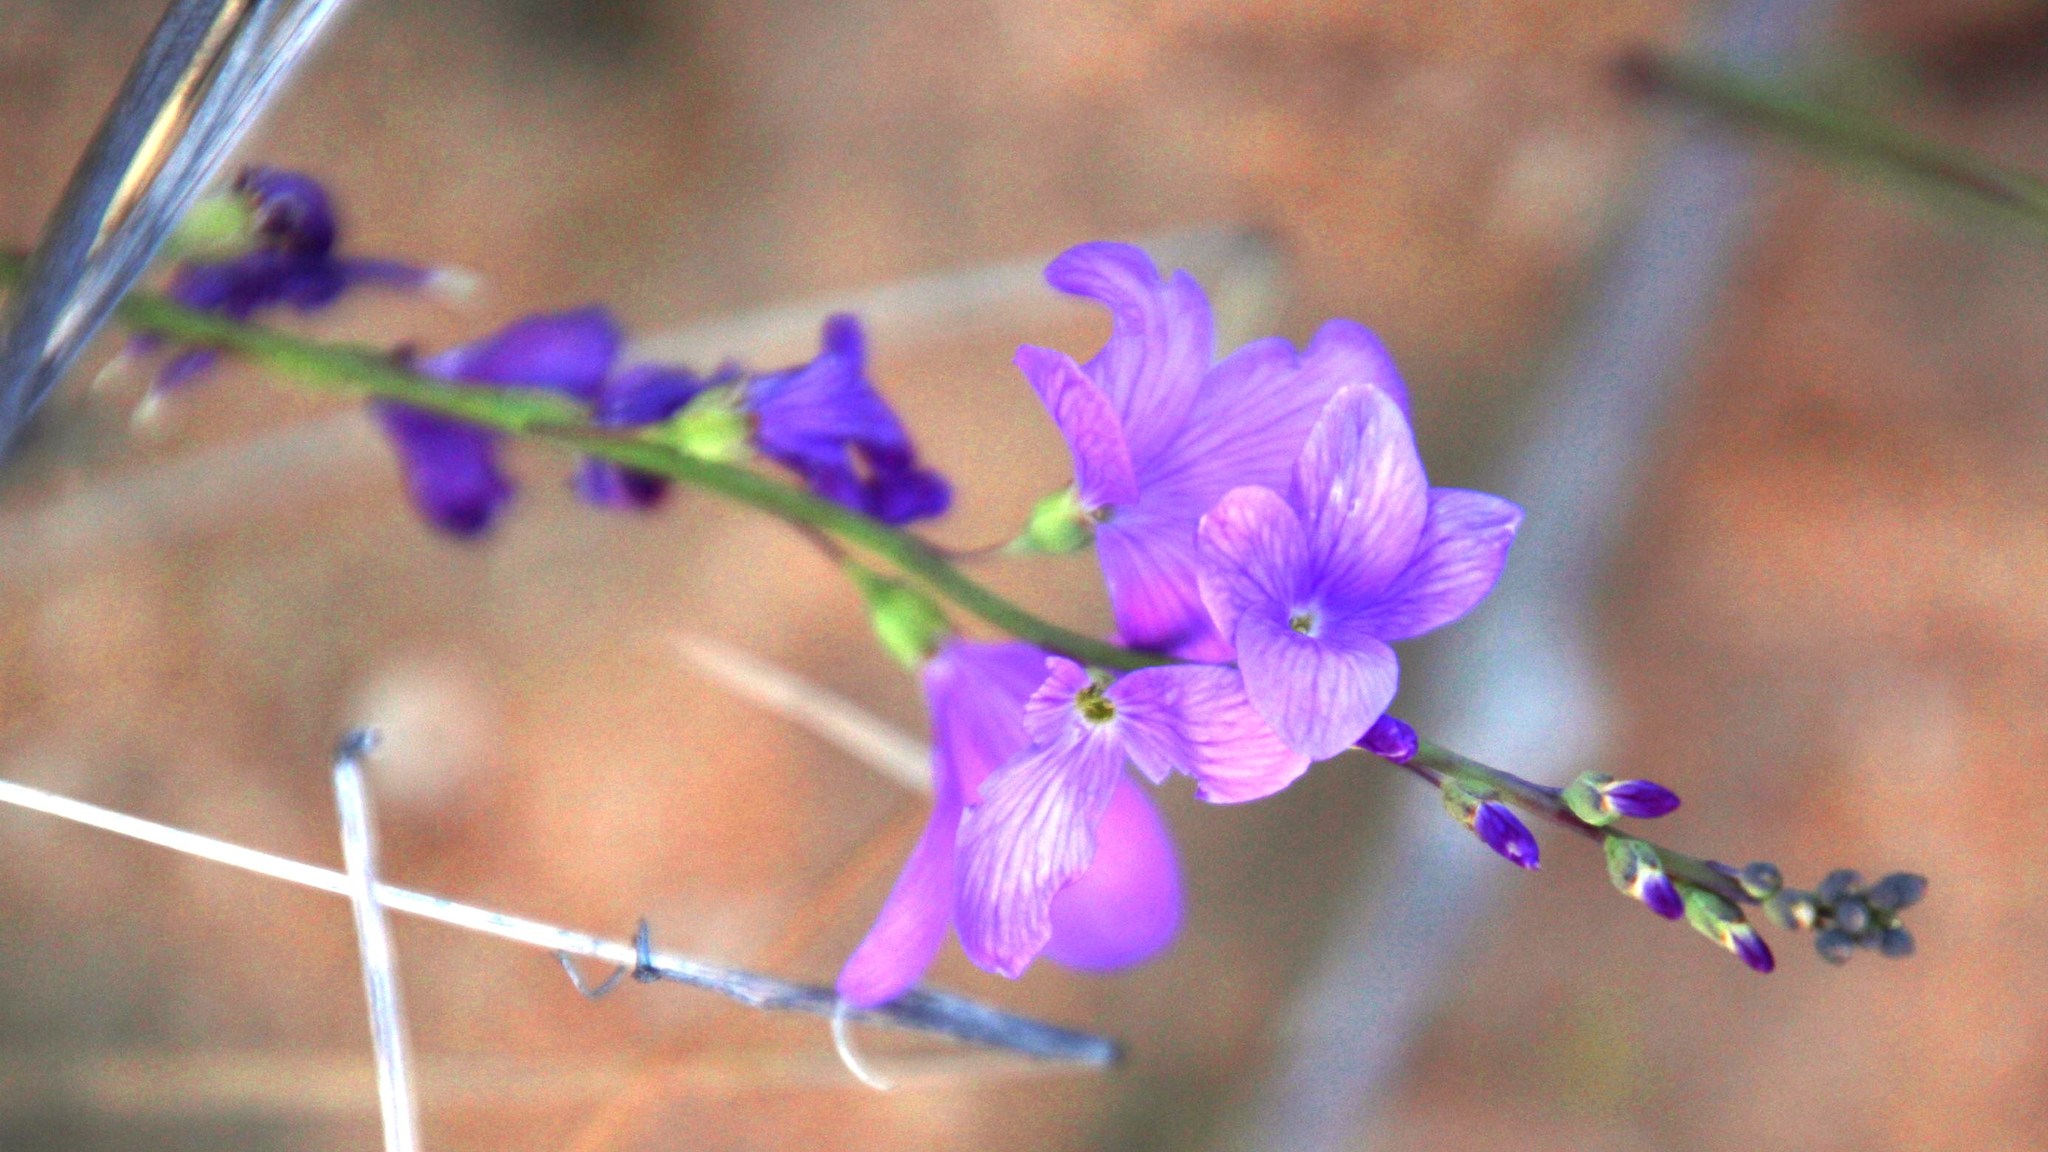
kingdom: Plantae
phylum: Tracheophyta
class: Magnoliopsida
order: Brassicales
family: Brassicaceae
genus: Heliophila
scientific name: Heliophila juncea
